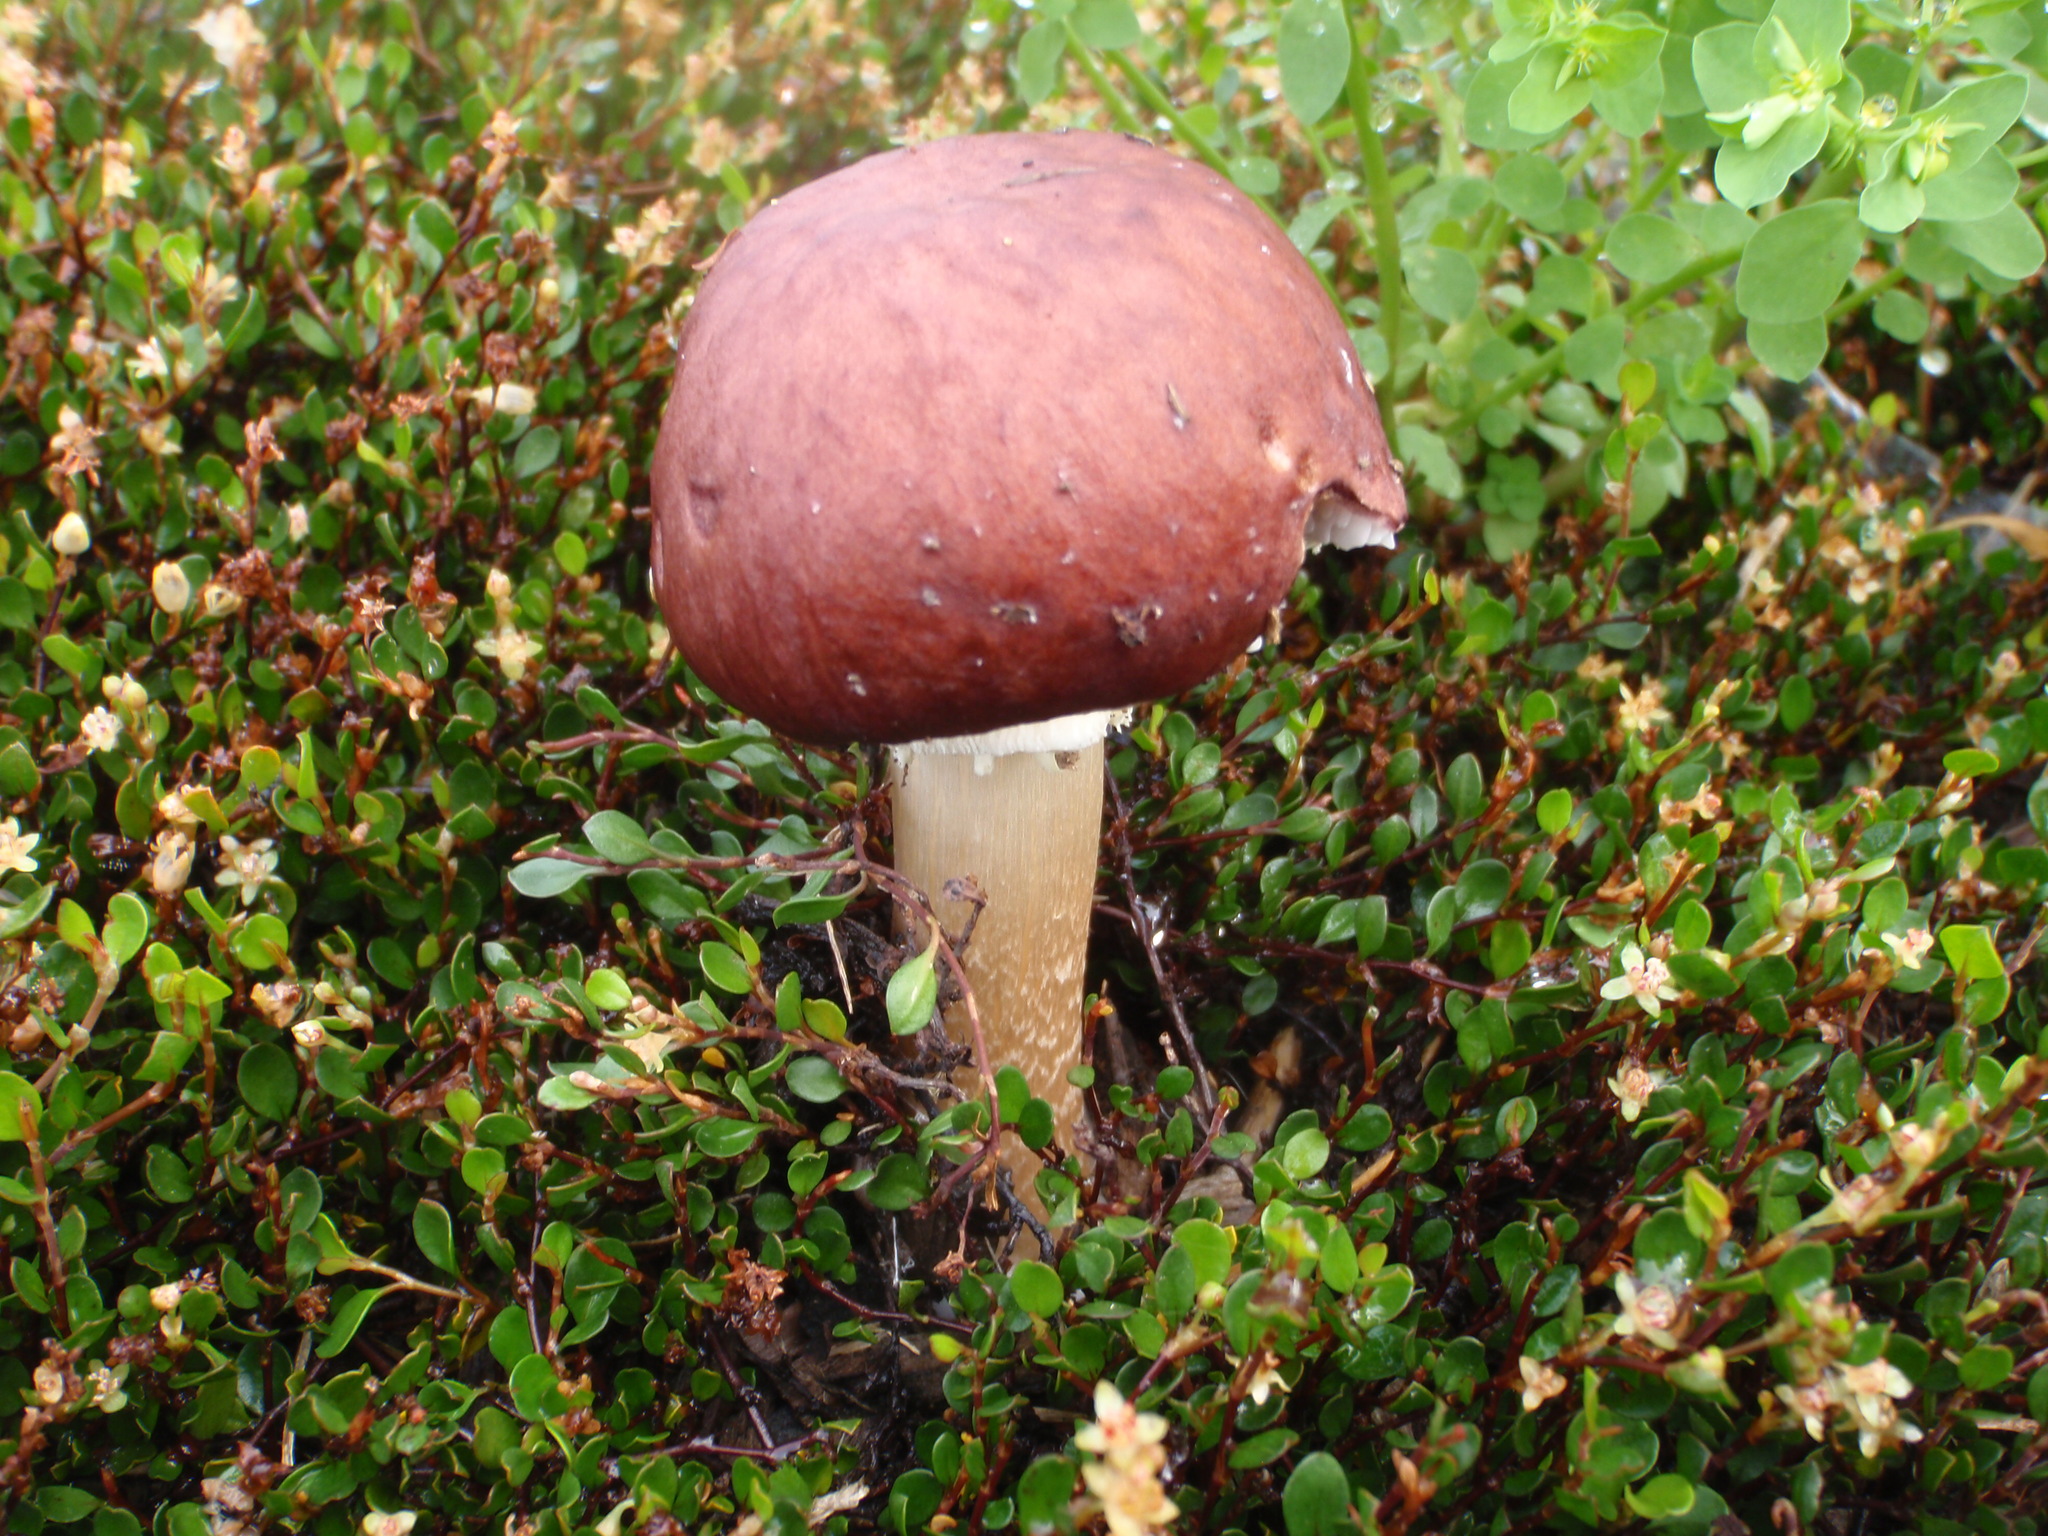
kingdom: Fungi
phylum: Basidiomycota
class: Agaricomycetes
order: Agaricales
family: Strophariaceae
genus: Stropharia
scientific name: Stropharia rugosoannulata
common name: Wine roundhead
